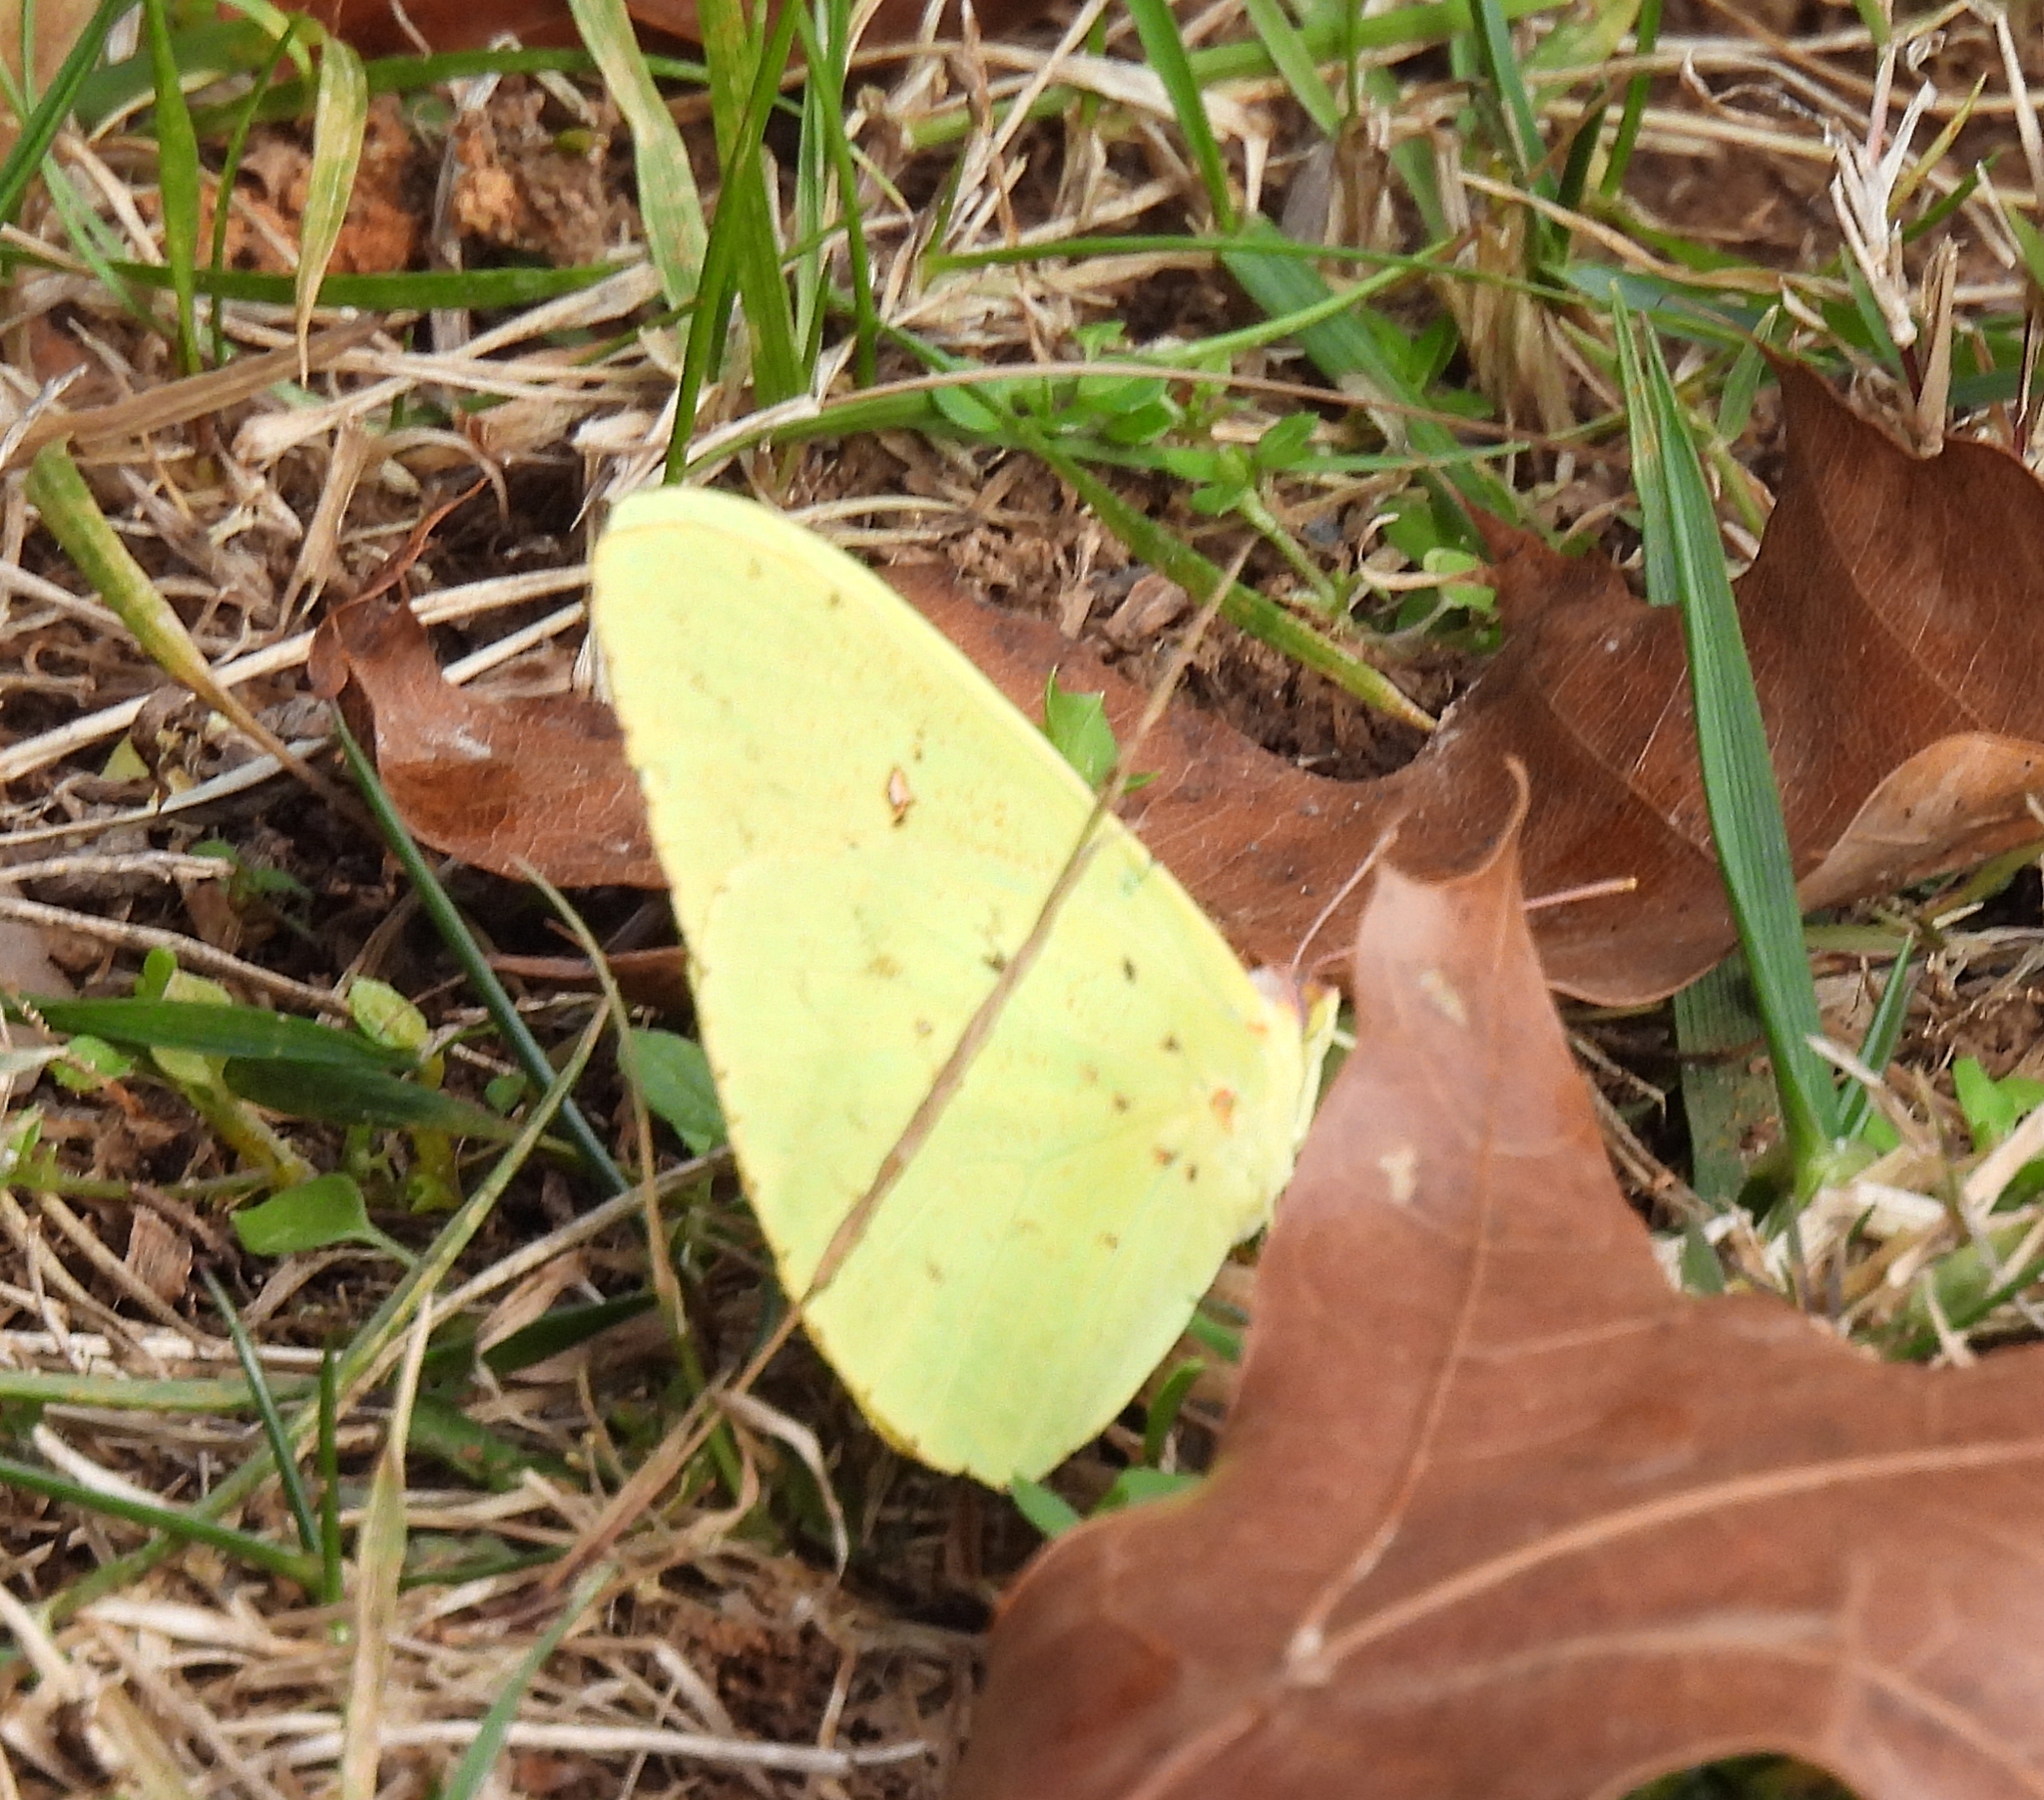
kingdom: Animalia
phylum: Arthropoda
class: Insecta
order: Lepidoptera
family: Pieridae
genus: Phoebis
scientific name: Phoebis sennae
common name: Cloudless sulphur
